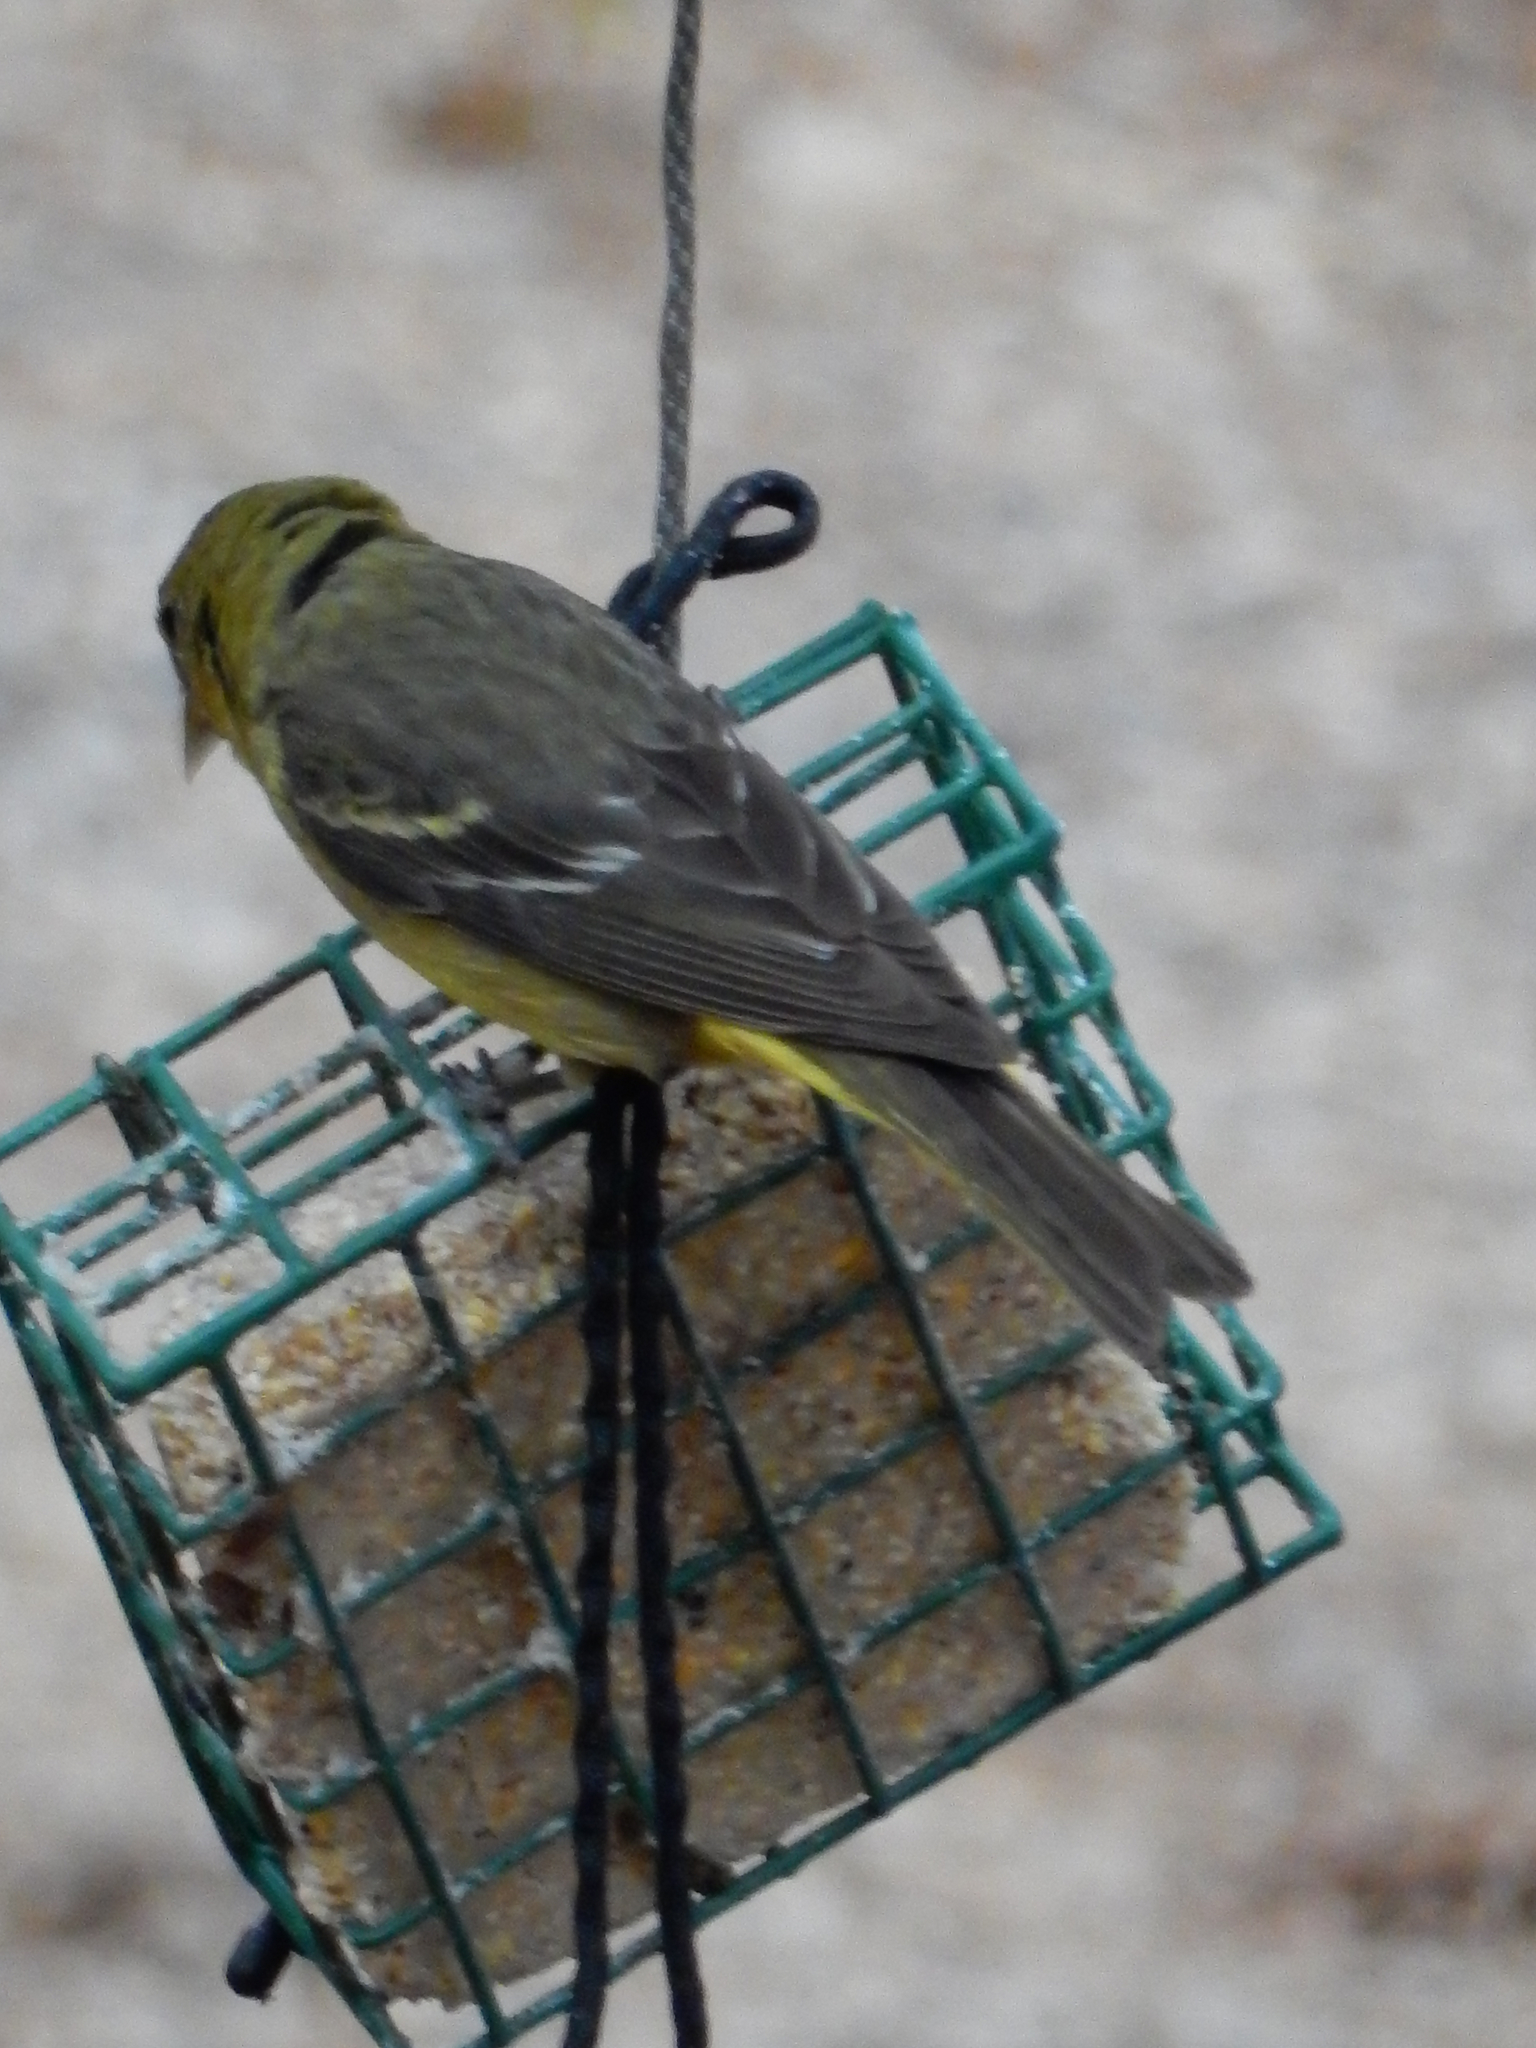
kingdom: Animalia
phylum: Chordata
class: Aves
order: Passeriformes
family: Cardinalidae
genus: Piranga
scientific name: Piranga ludoviciana
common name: Western tanager
